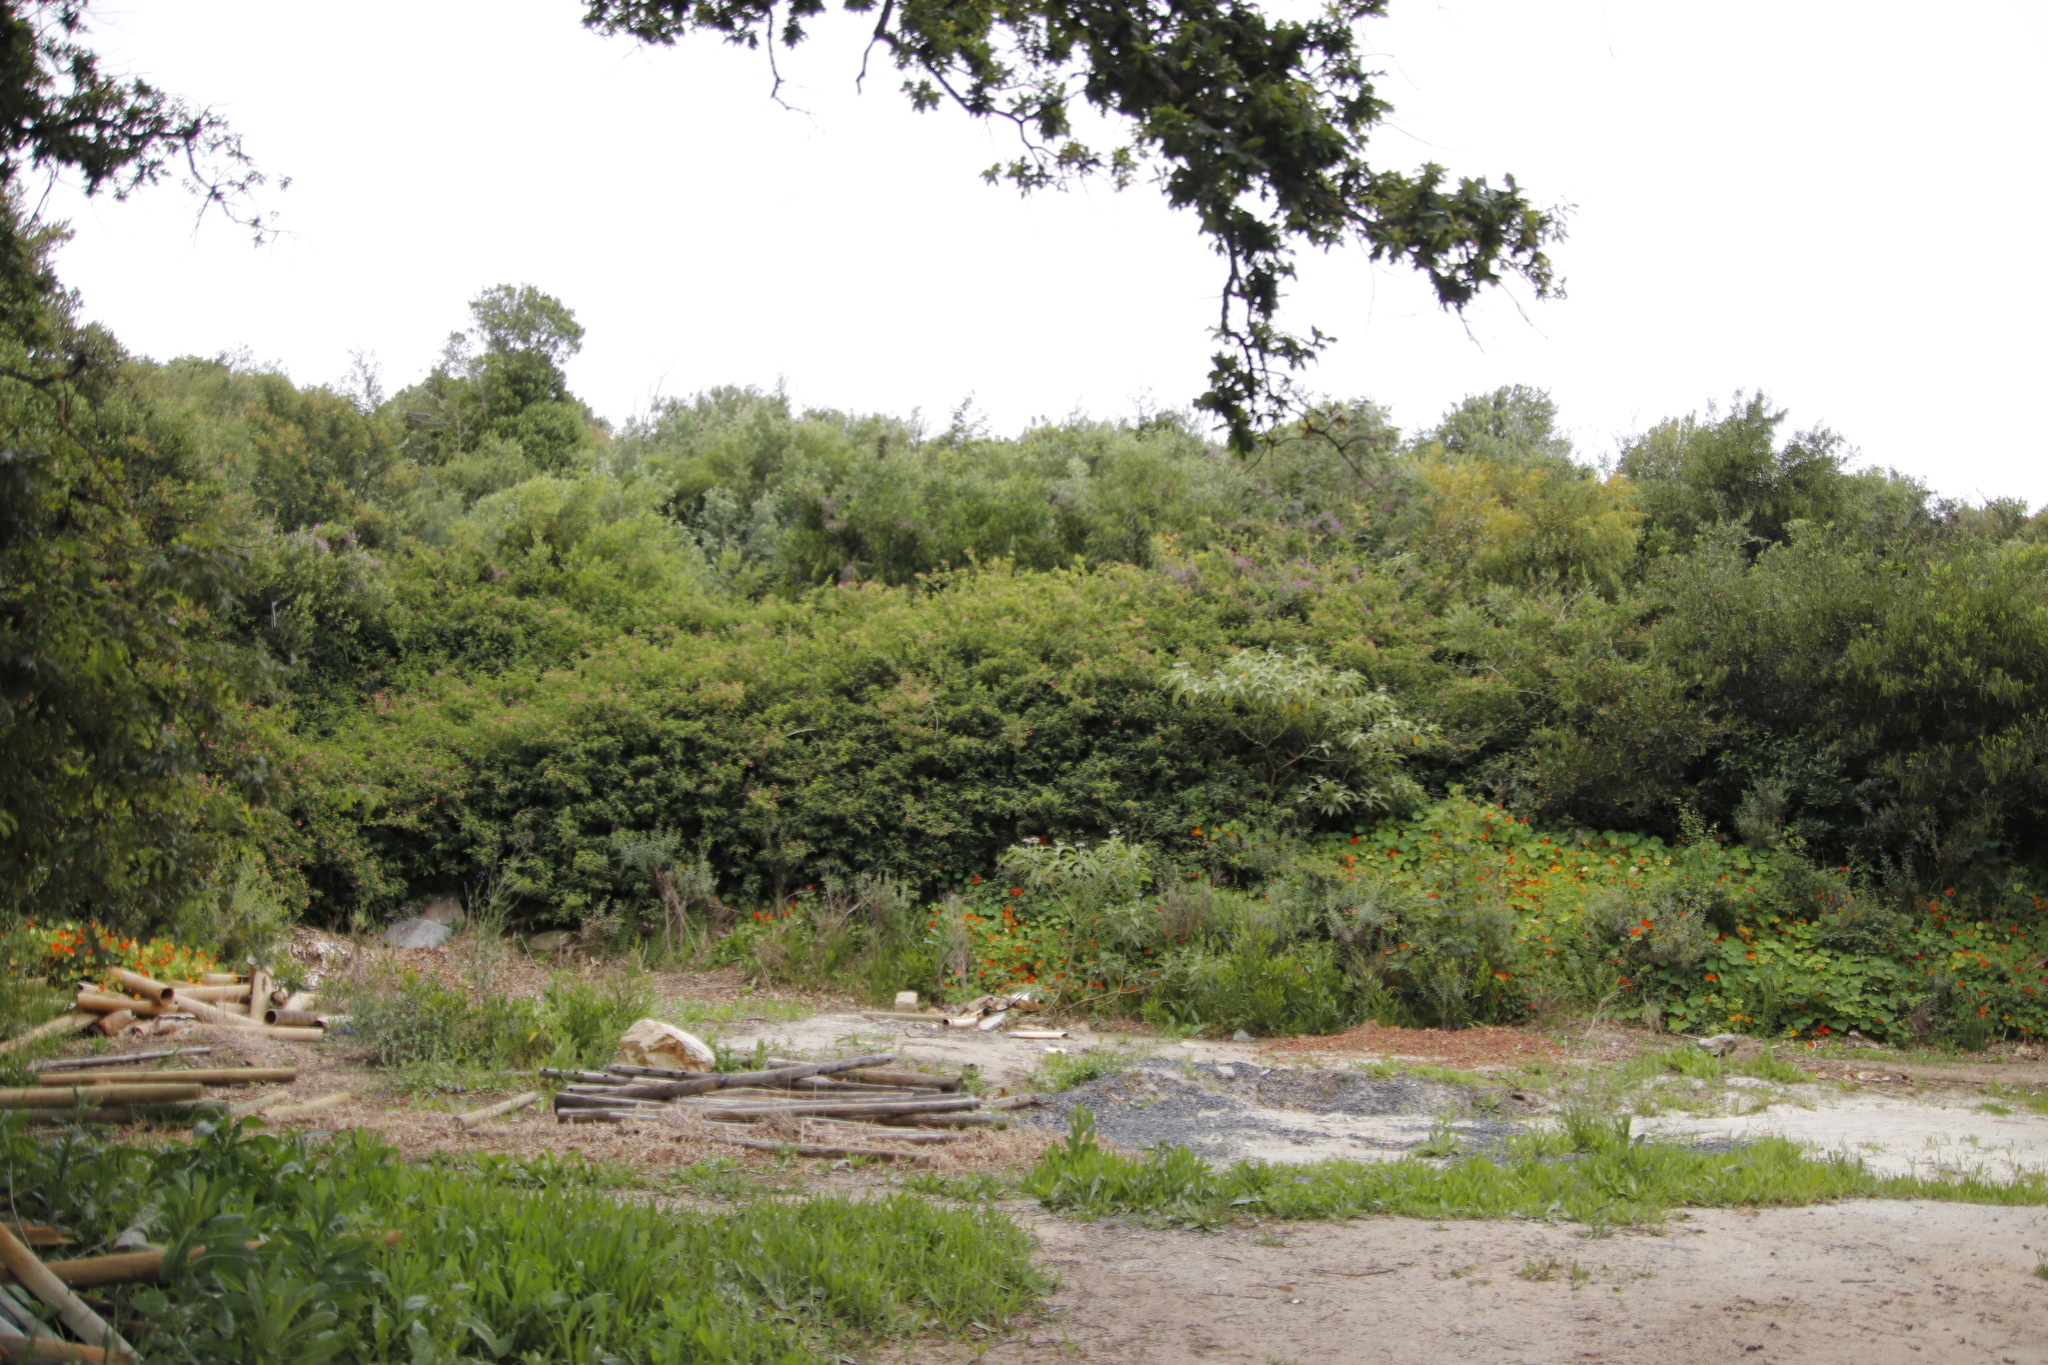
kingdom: Plantae
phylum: Tracheophyta
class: Magnoliopsida
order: Lamiales
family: Verbenaceae
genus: Lantana
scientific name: Lantana camara
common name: Lantana
